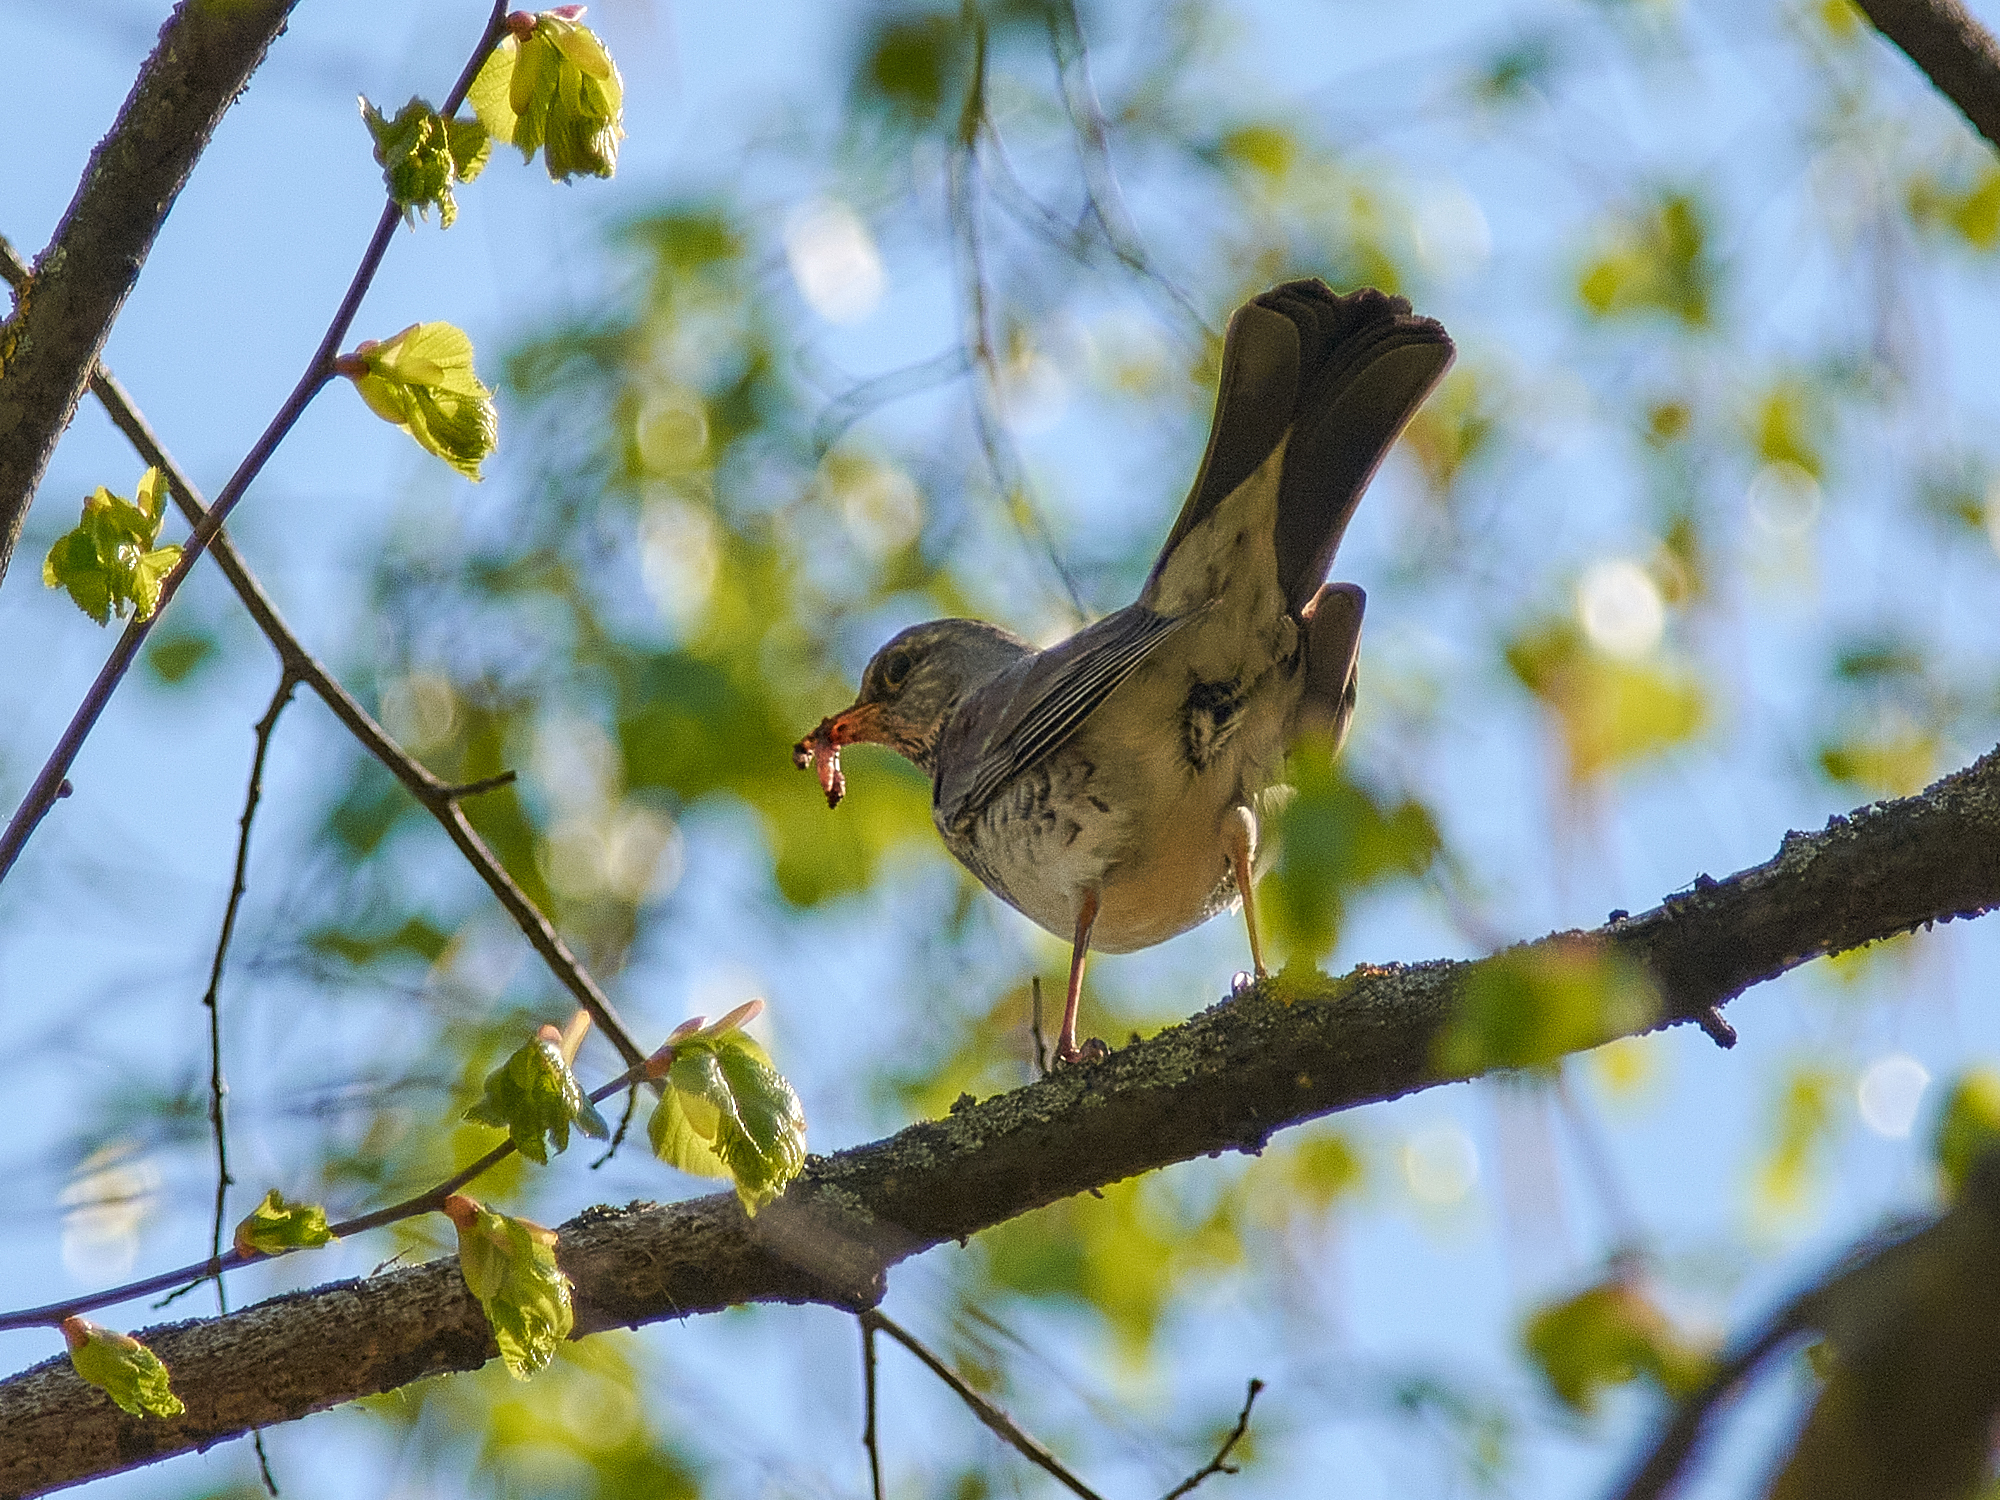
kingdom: Animalia
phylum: Chordata
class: Aves
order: Passeriformes
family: Turdidae
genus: Turdus
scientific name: Turdus pilaris
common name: Fieldfare
